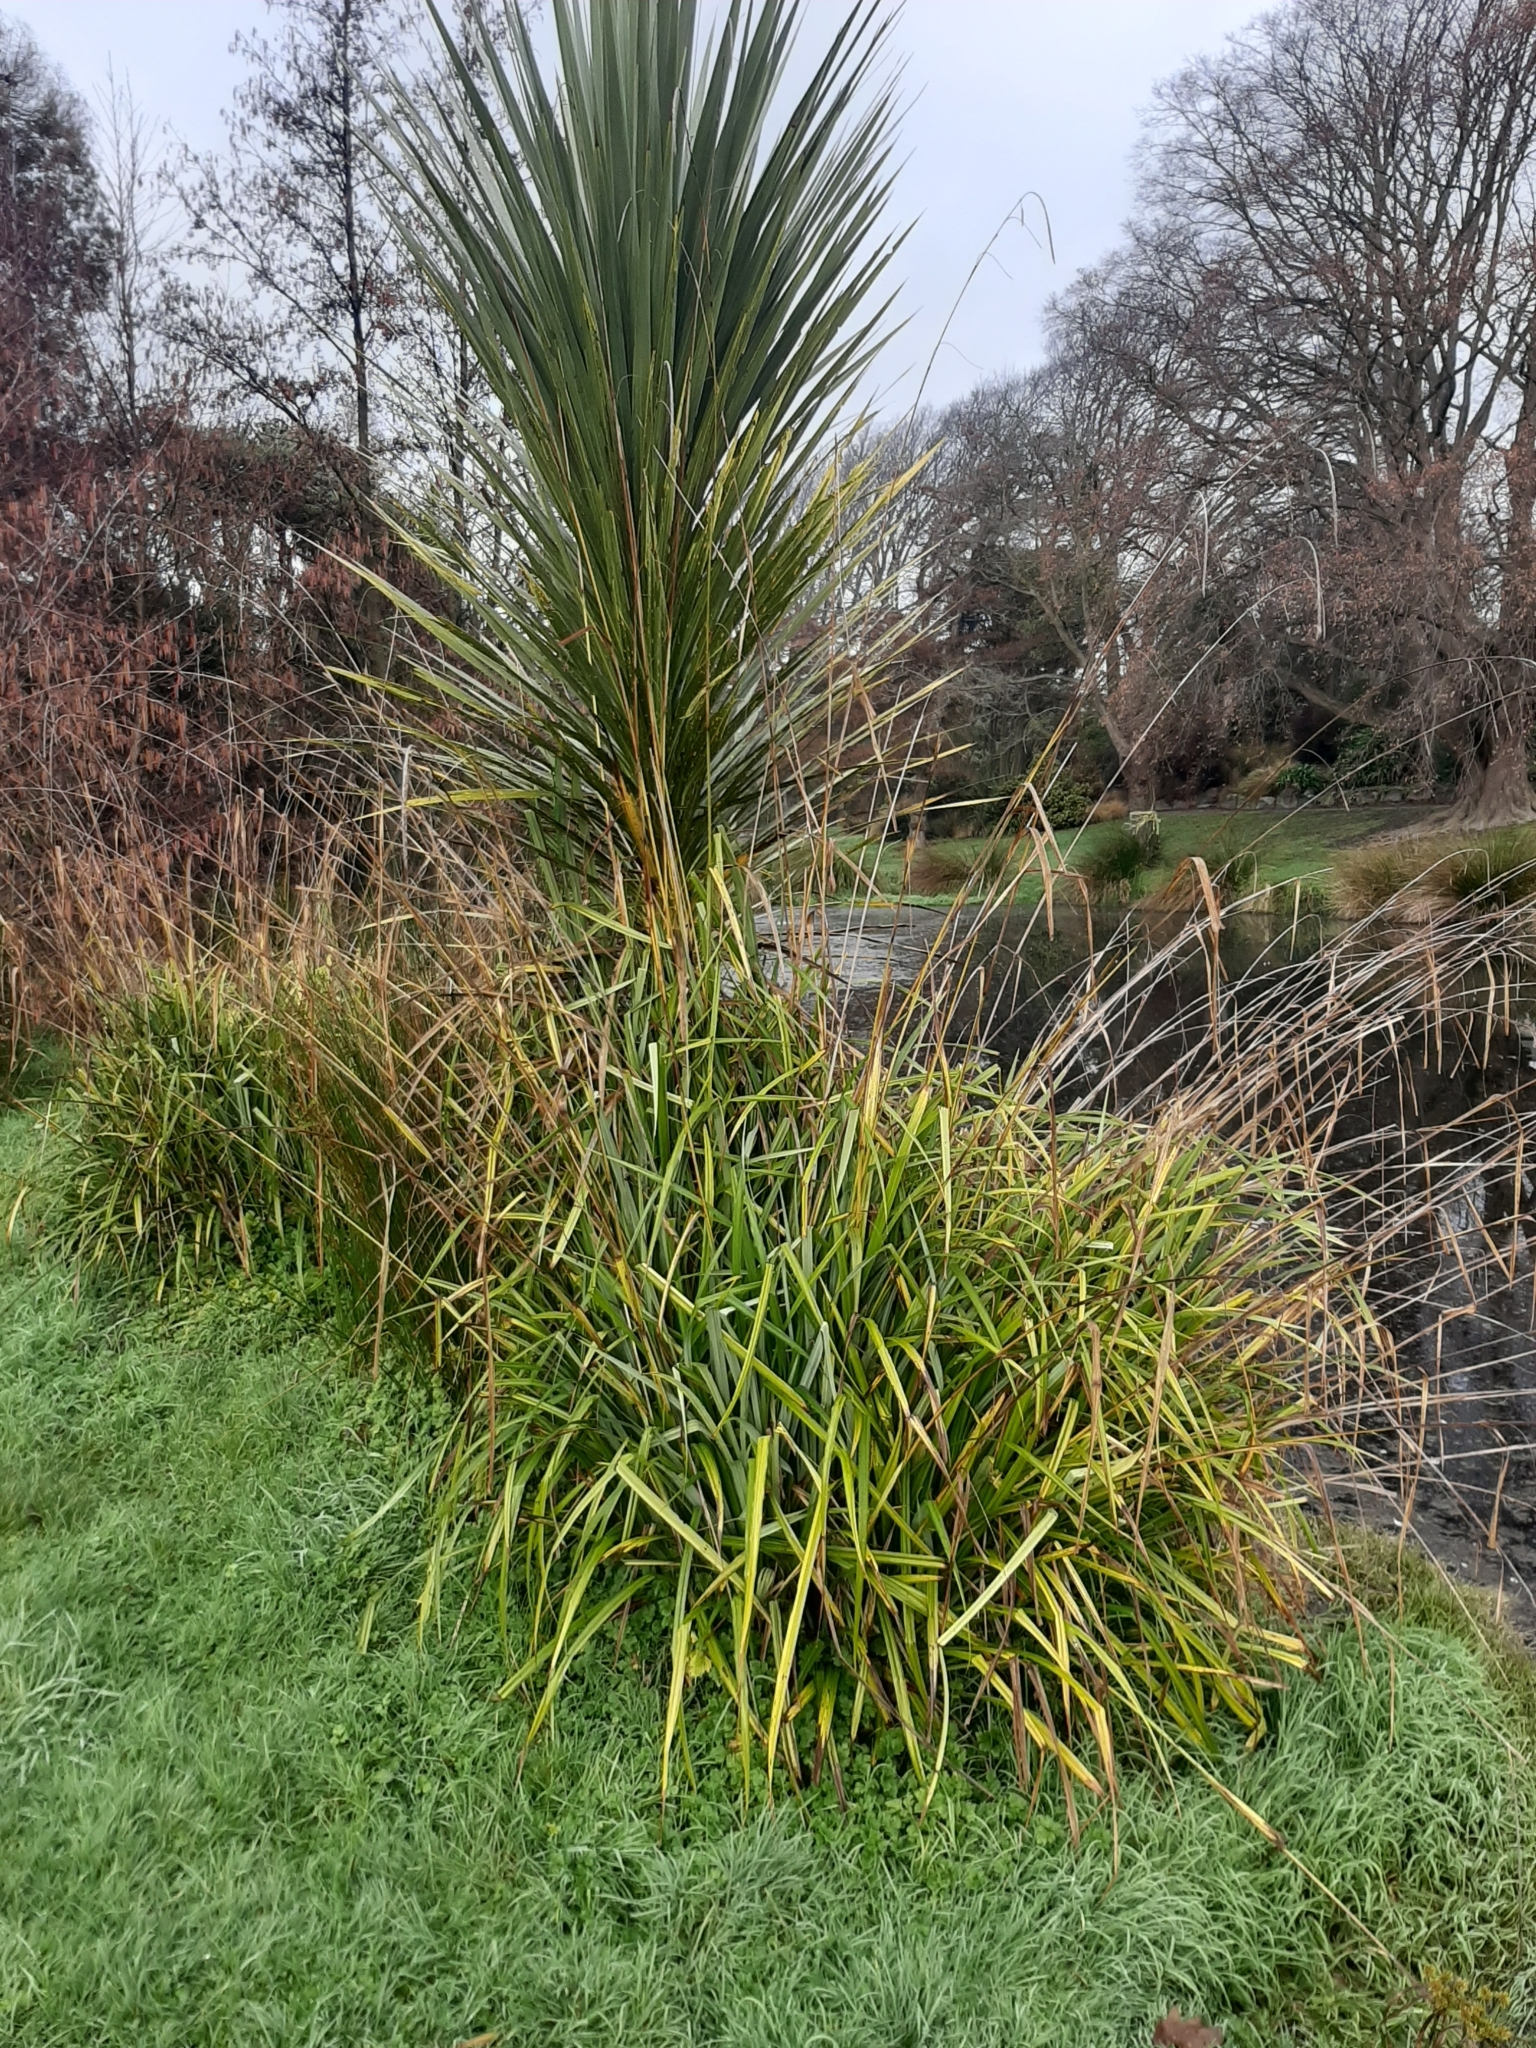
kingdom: Plantae
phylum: Tracheophyta
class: Liliopsida
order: Poales
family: Cyperaceae
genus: Carex
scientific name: Carex pendula
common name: Pendulous sedge
